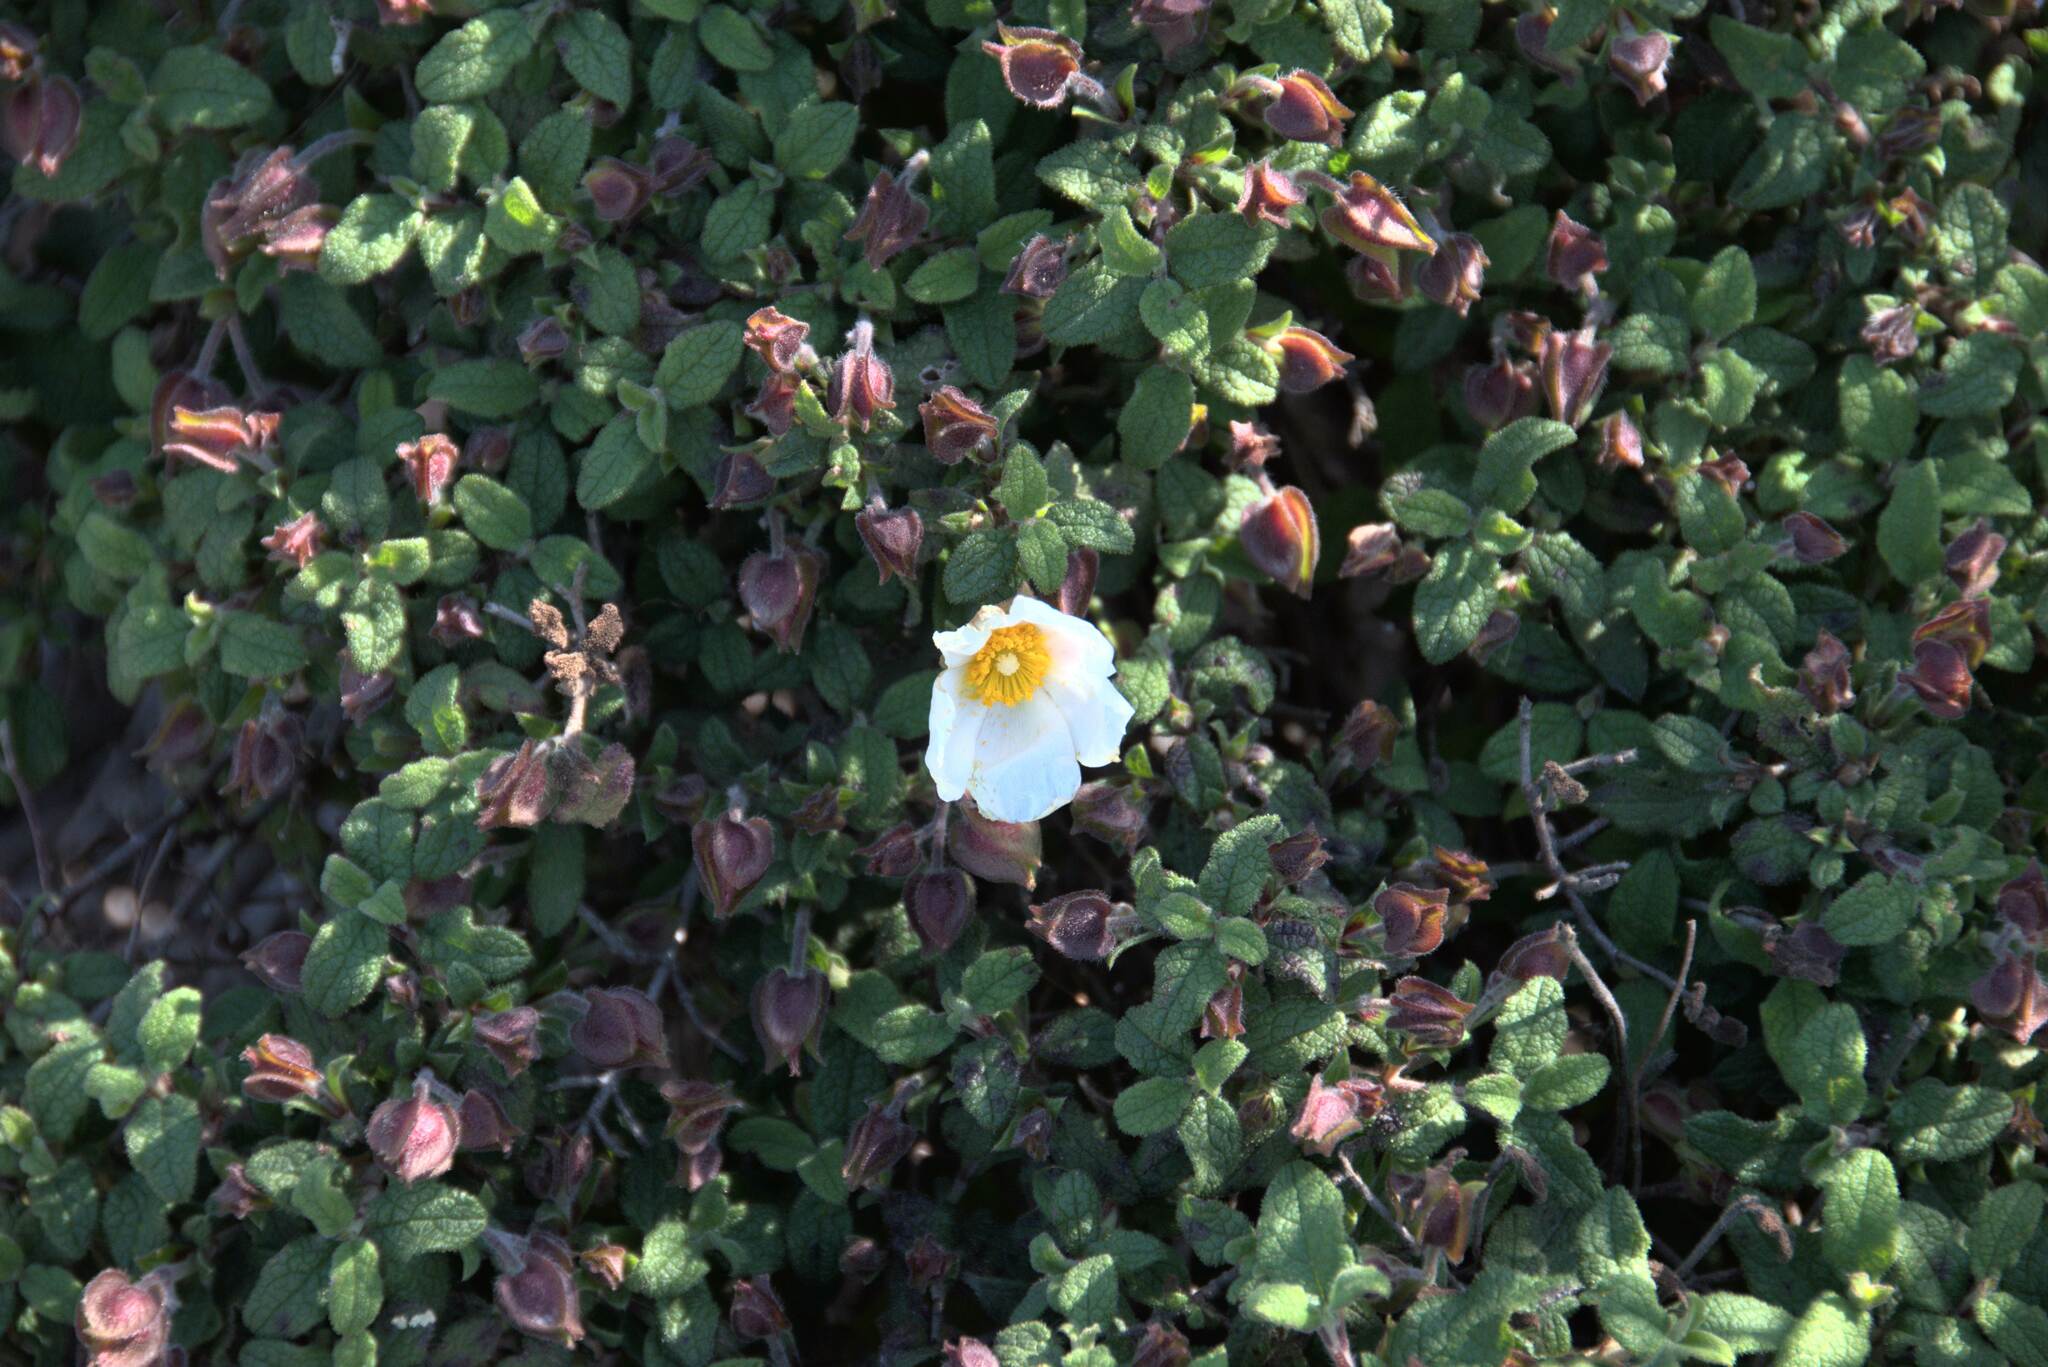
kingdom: Plantae
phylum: Tracheophyta
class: Magnoliopsida
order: Malvales
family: Cistaceae
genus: Cistus
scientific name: Cistus salviifolius
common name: Salvia cistus
